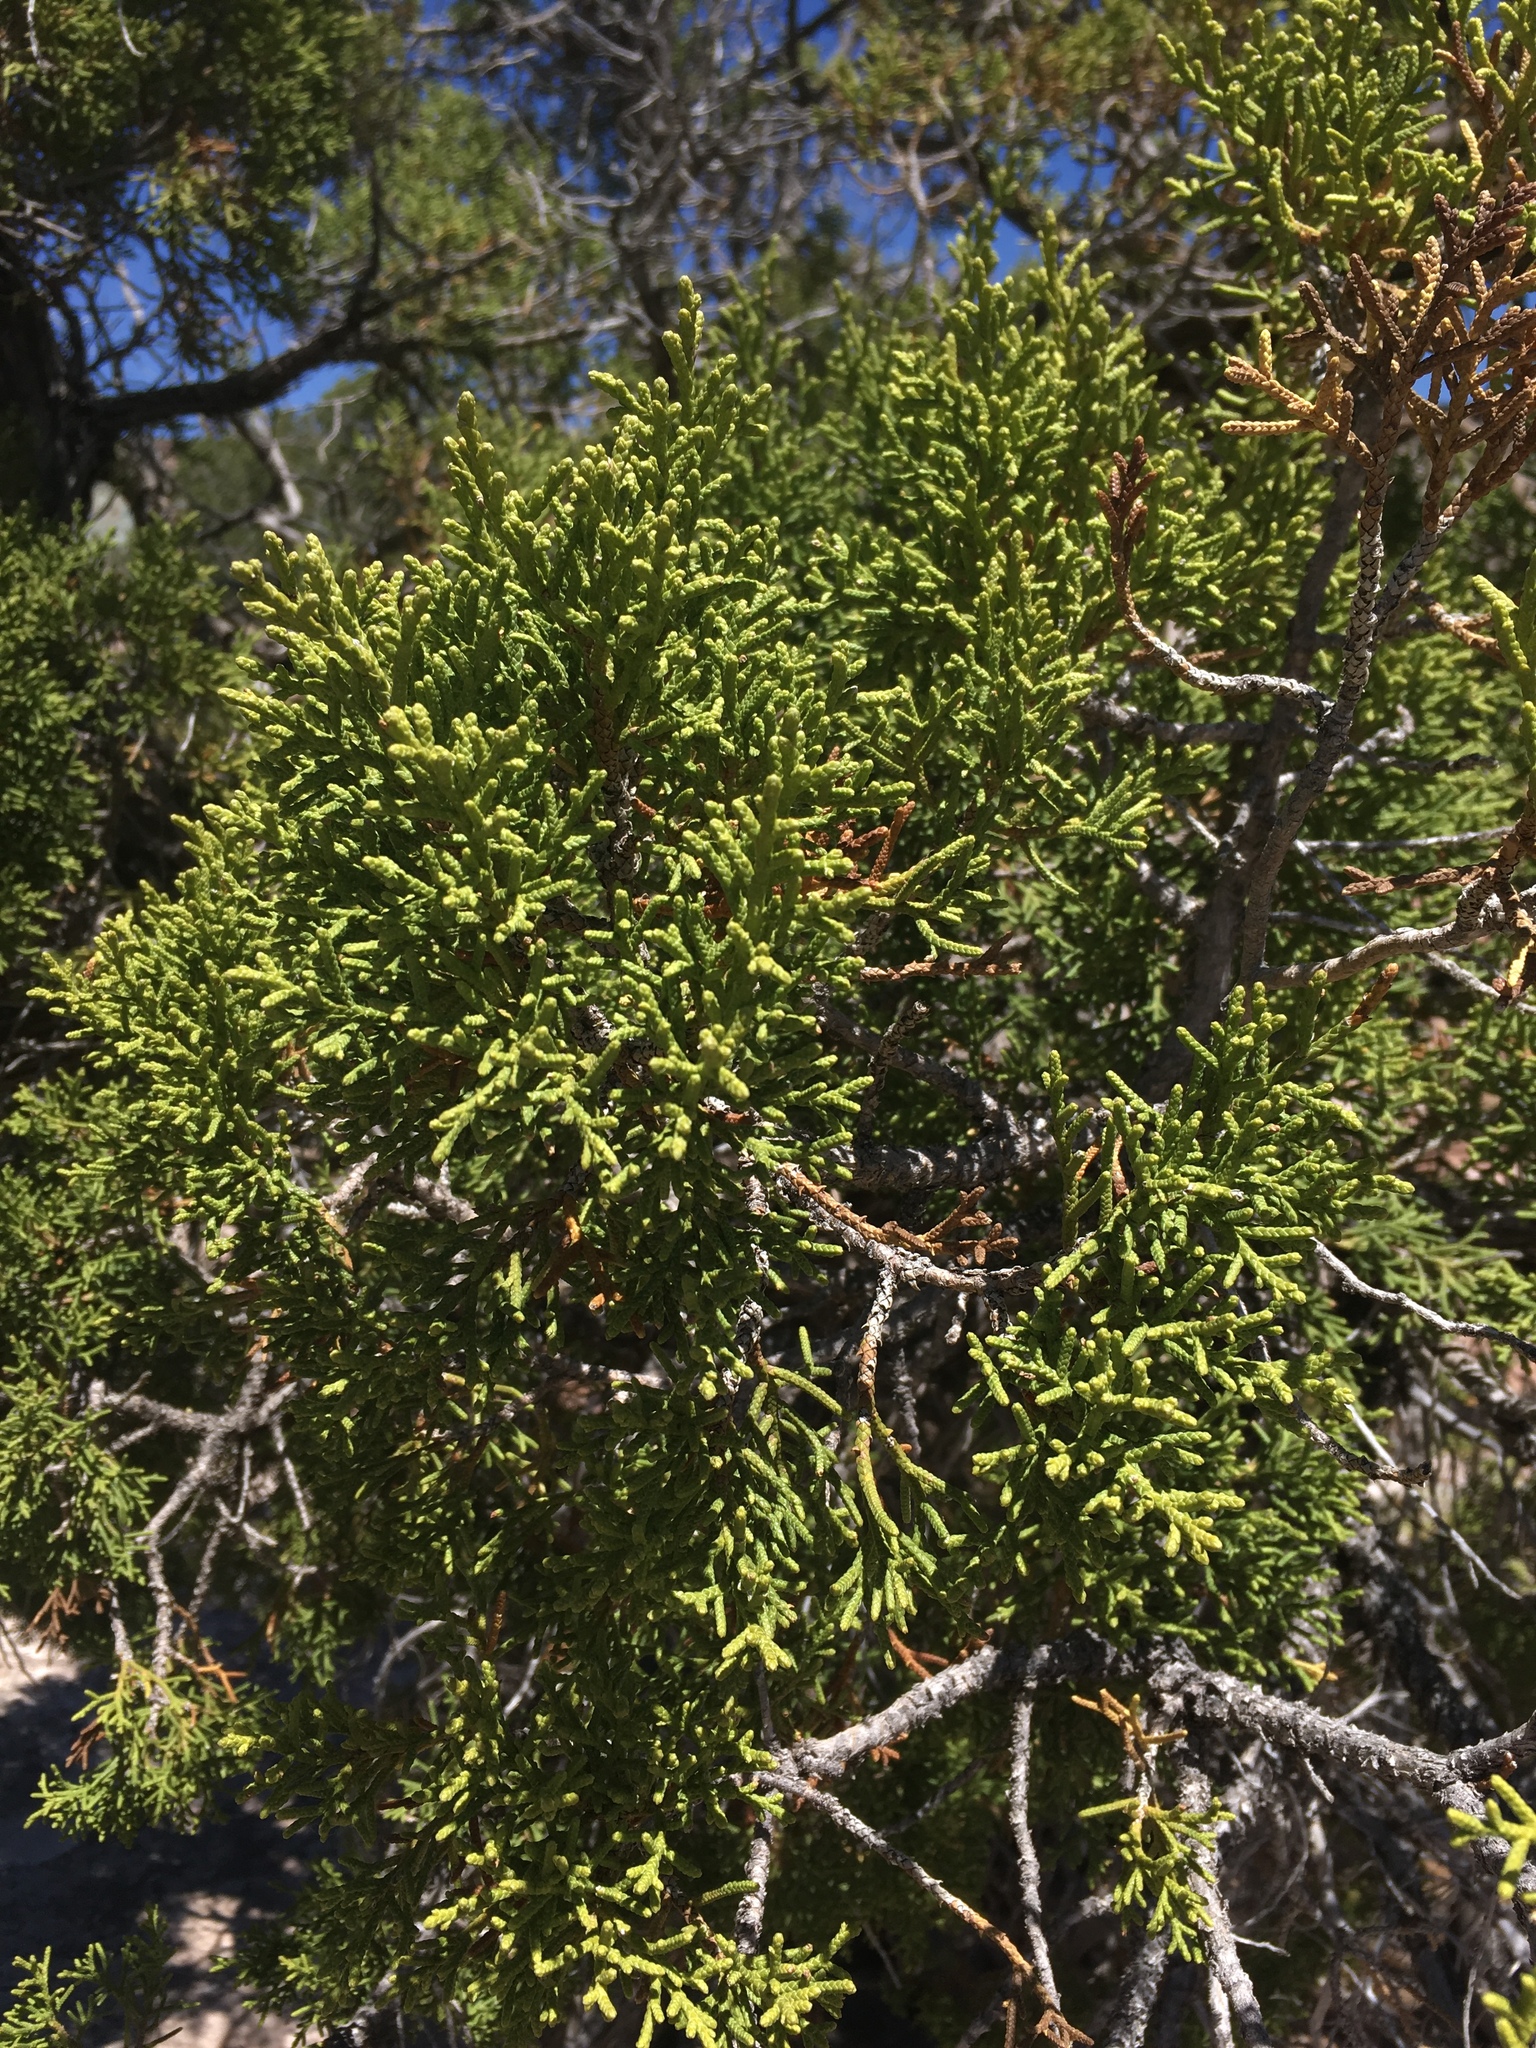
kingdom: Plantae
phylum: Tracheophyta
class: Pinopsida
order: Pinales
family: Cupressaceae
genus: Juniperus
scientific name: Juniperus osteosperma
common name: Utah juniper
